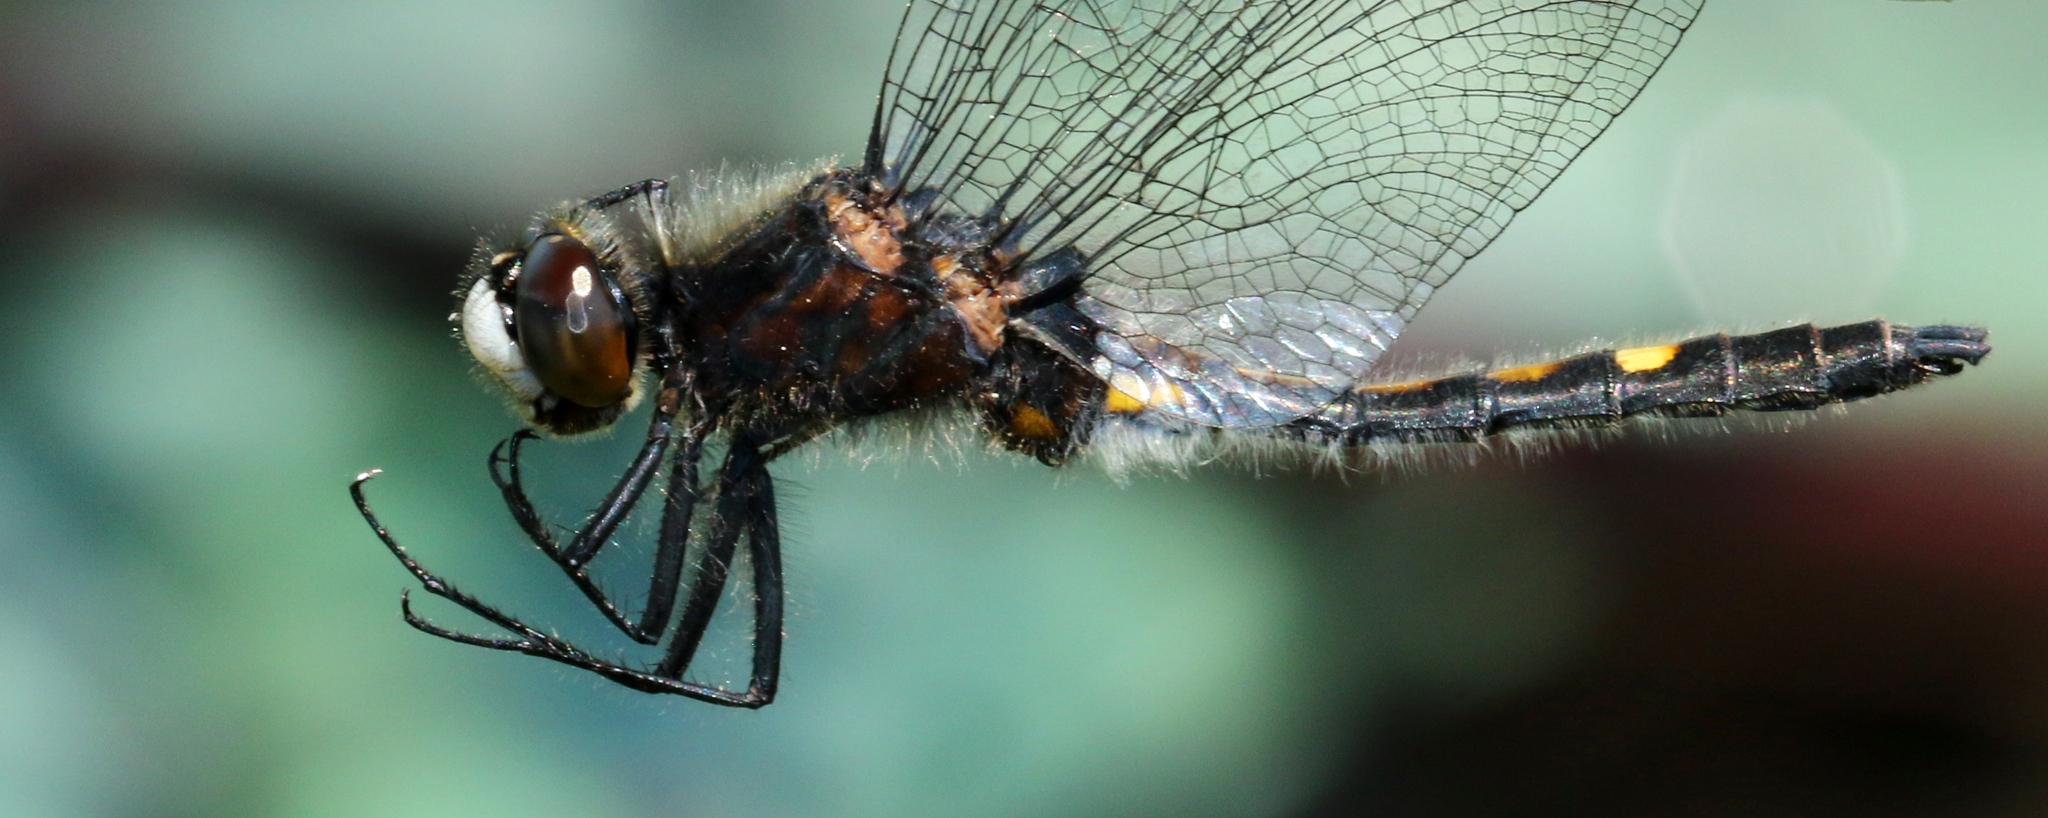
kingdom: Animalia
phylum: Arthropoda
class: Insecta
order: Odonata
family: Libellulidae
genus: Leucorrhinia
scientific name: Leucorrhinia intacta
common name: Dot-tailed whiteface
